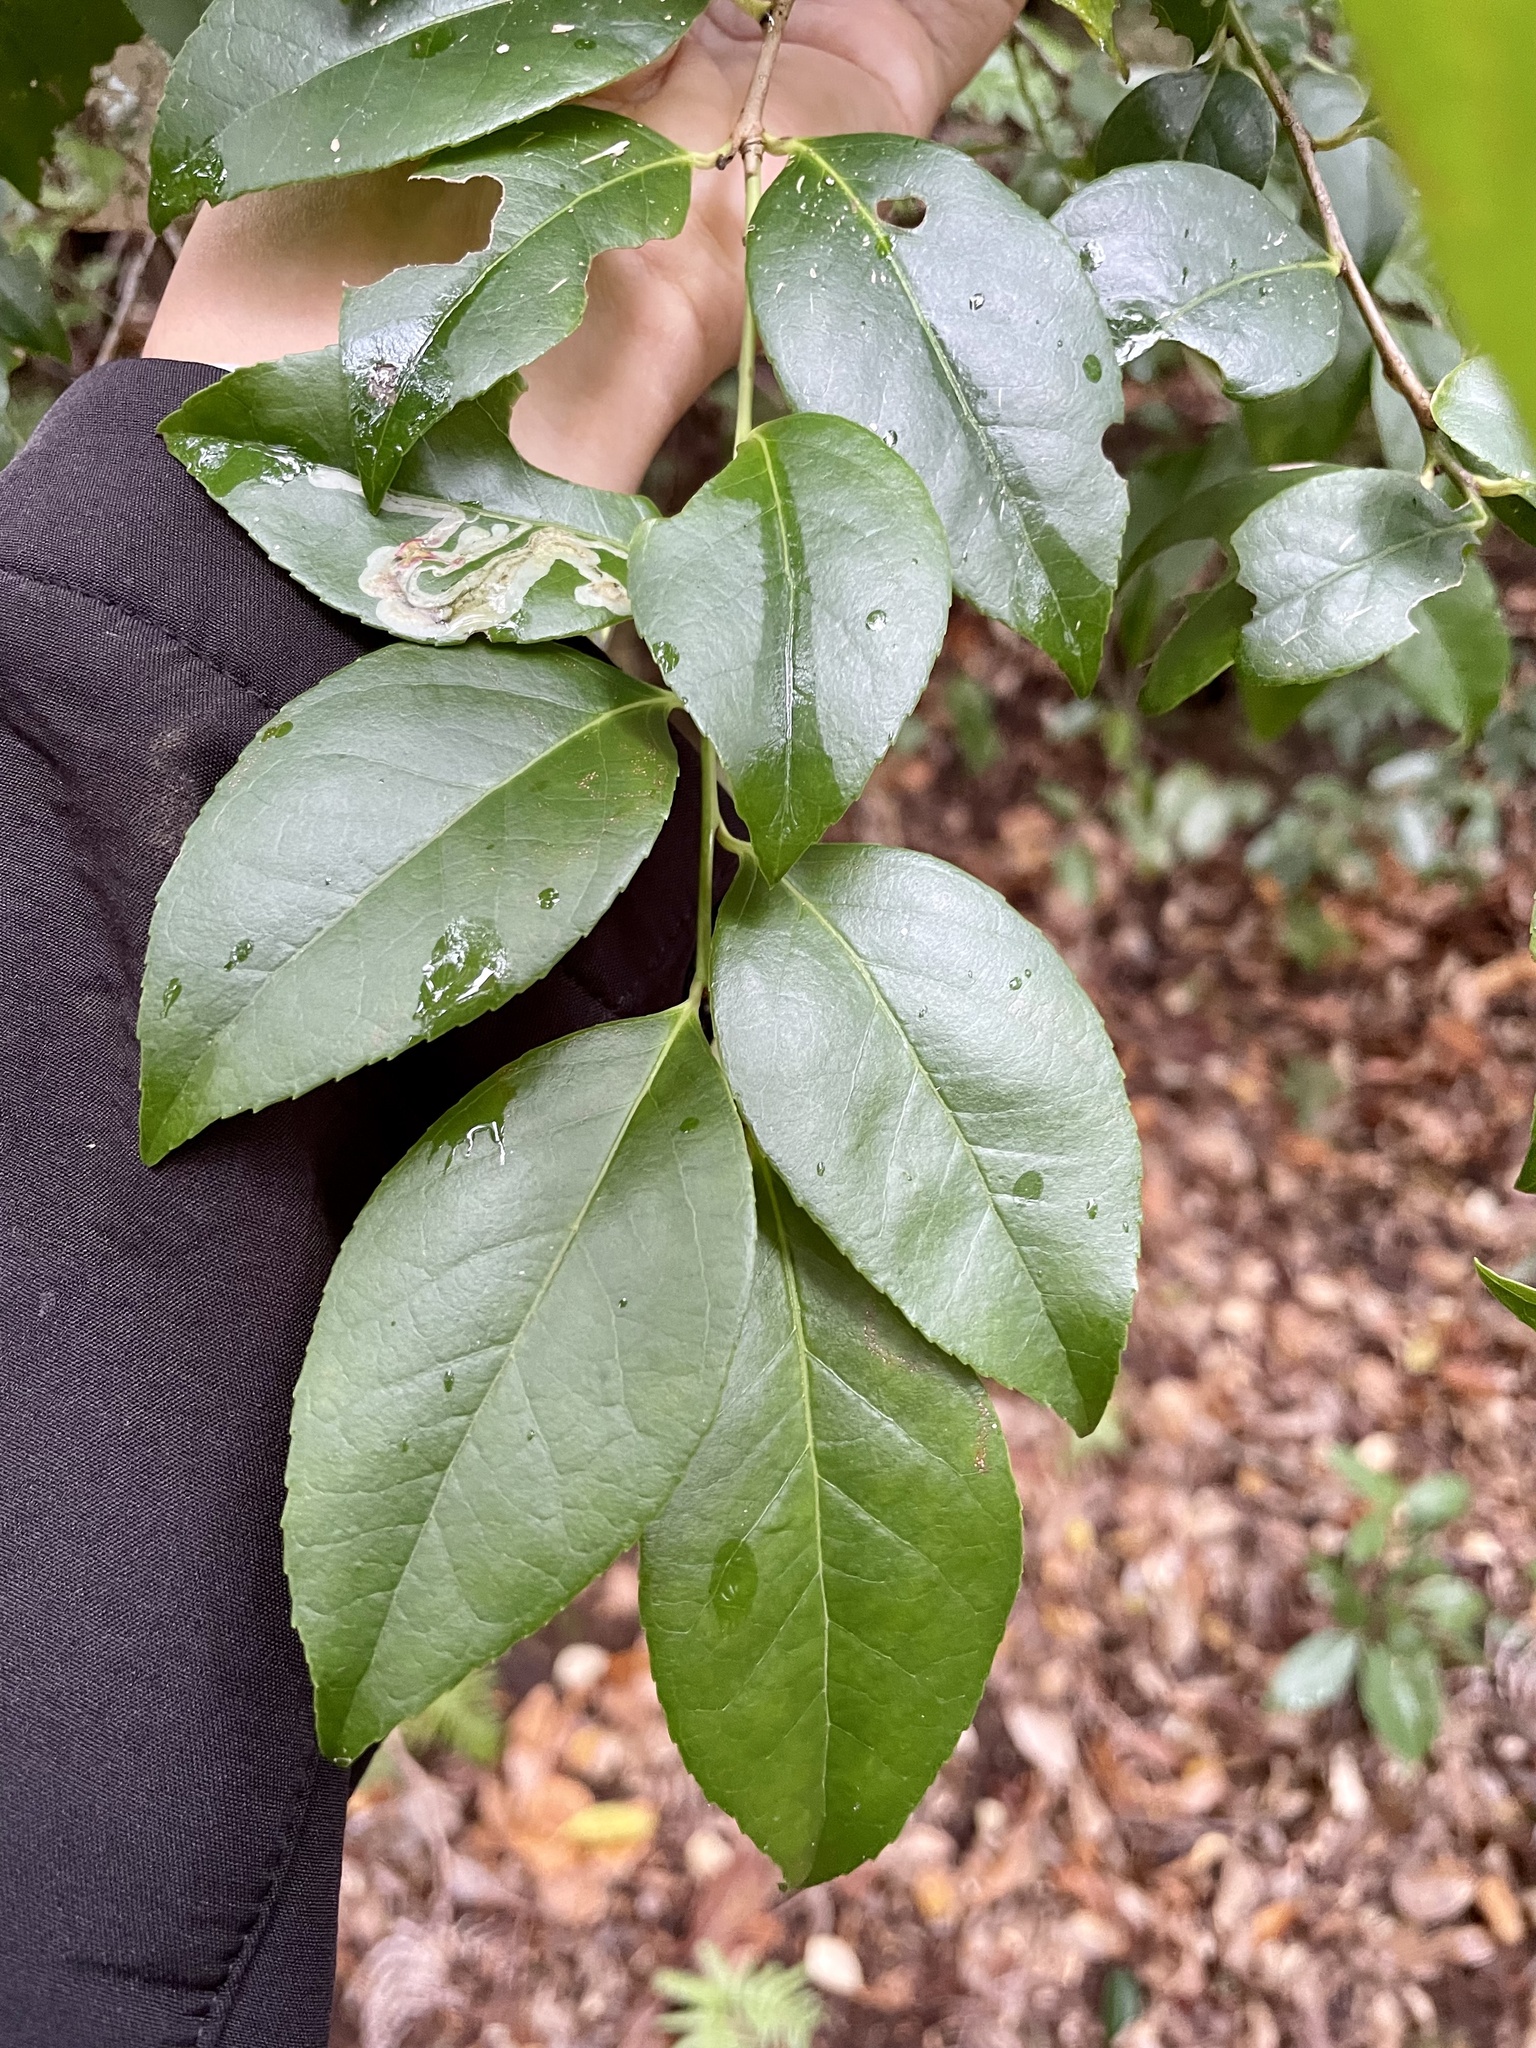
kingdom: Plantae
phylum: Tracheophyta
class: Magnoliopsida
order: Ericales
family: Ericaceae
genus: Vaccinium
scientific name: Vaccinium bracteatum
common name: Sea bilberry
